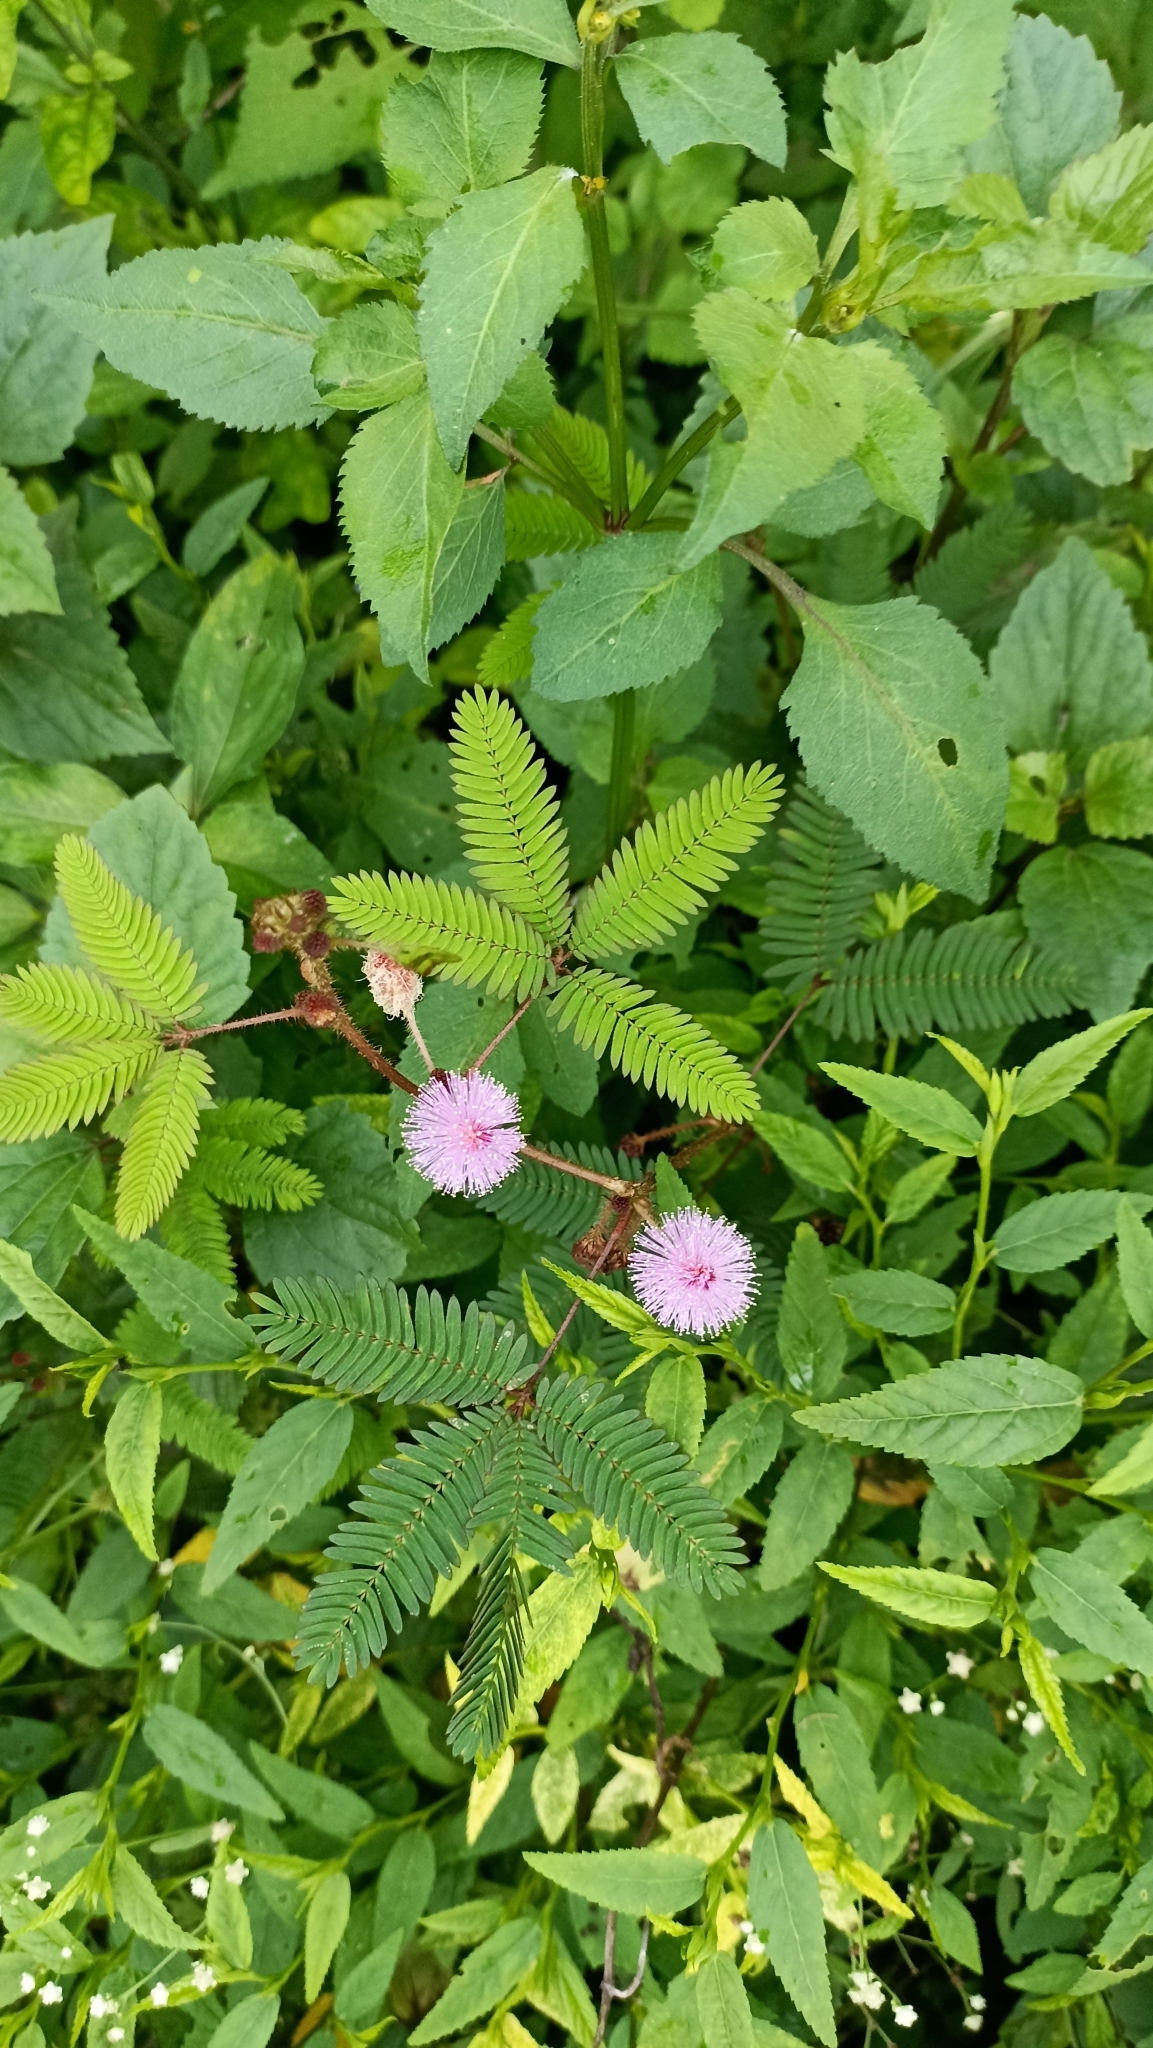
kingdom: Plantae
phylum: Tracheophyta
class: Magnoliopsida
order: Fabales
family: Fabaceae
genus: Mimosa
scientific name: Mimosa pudica
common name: Sensitive plant
